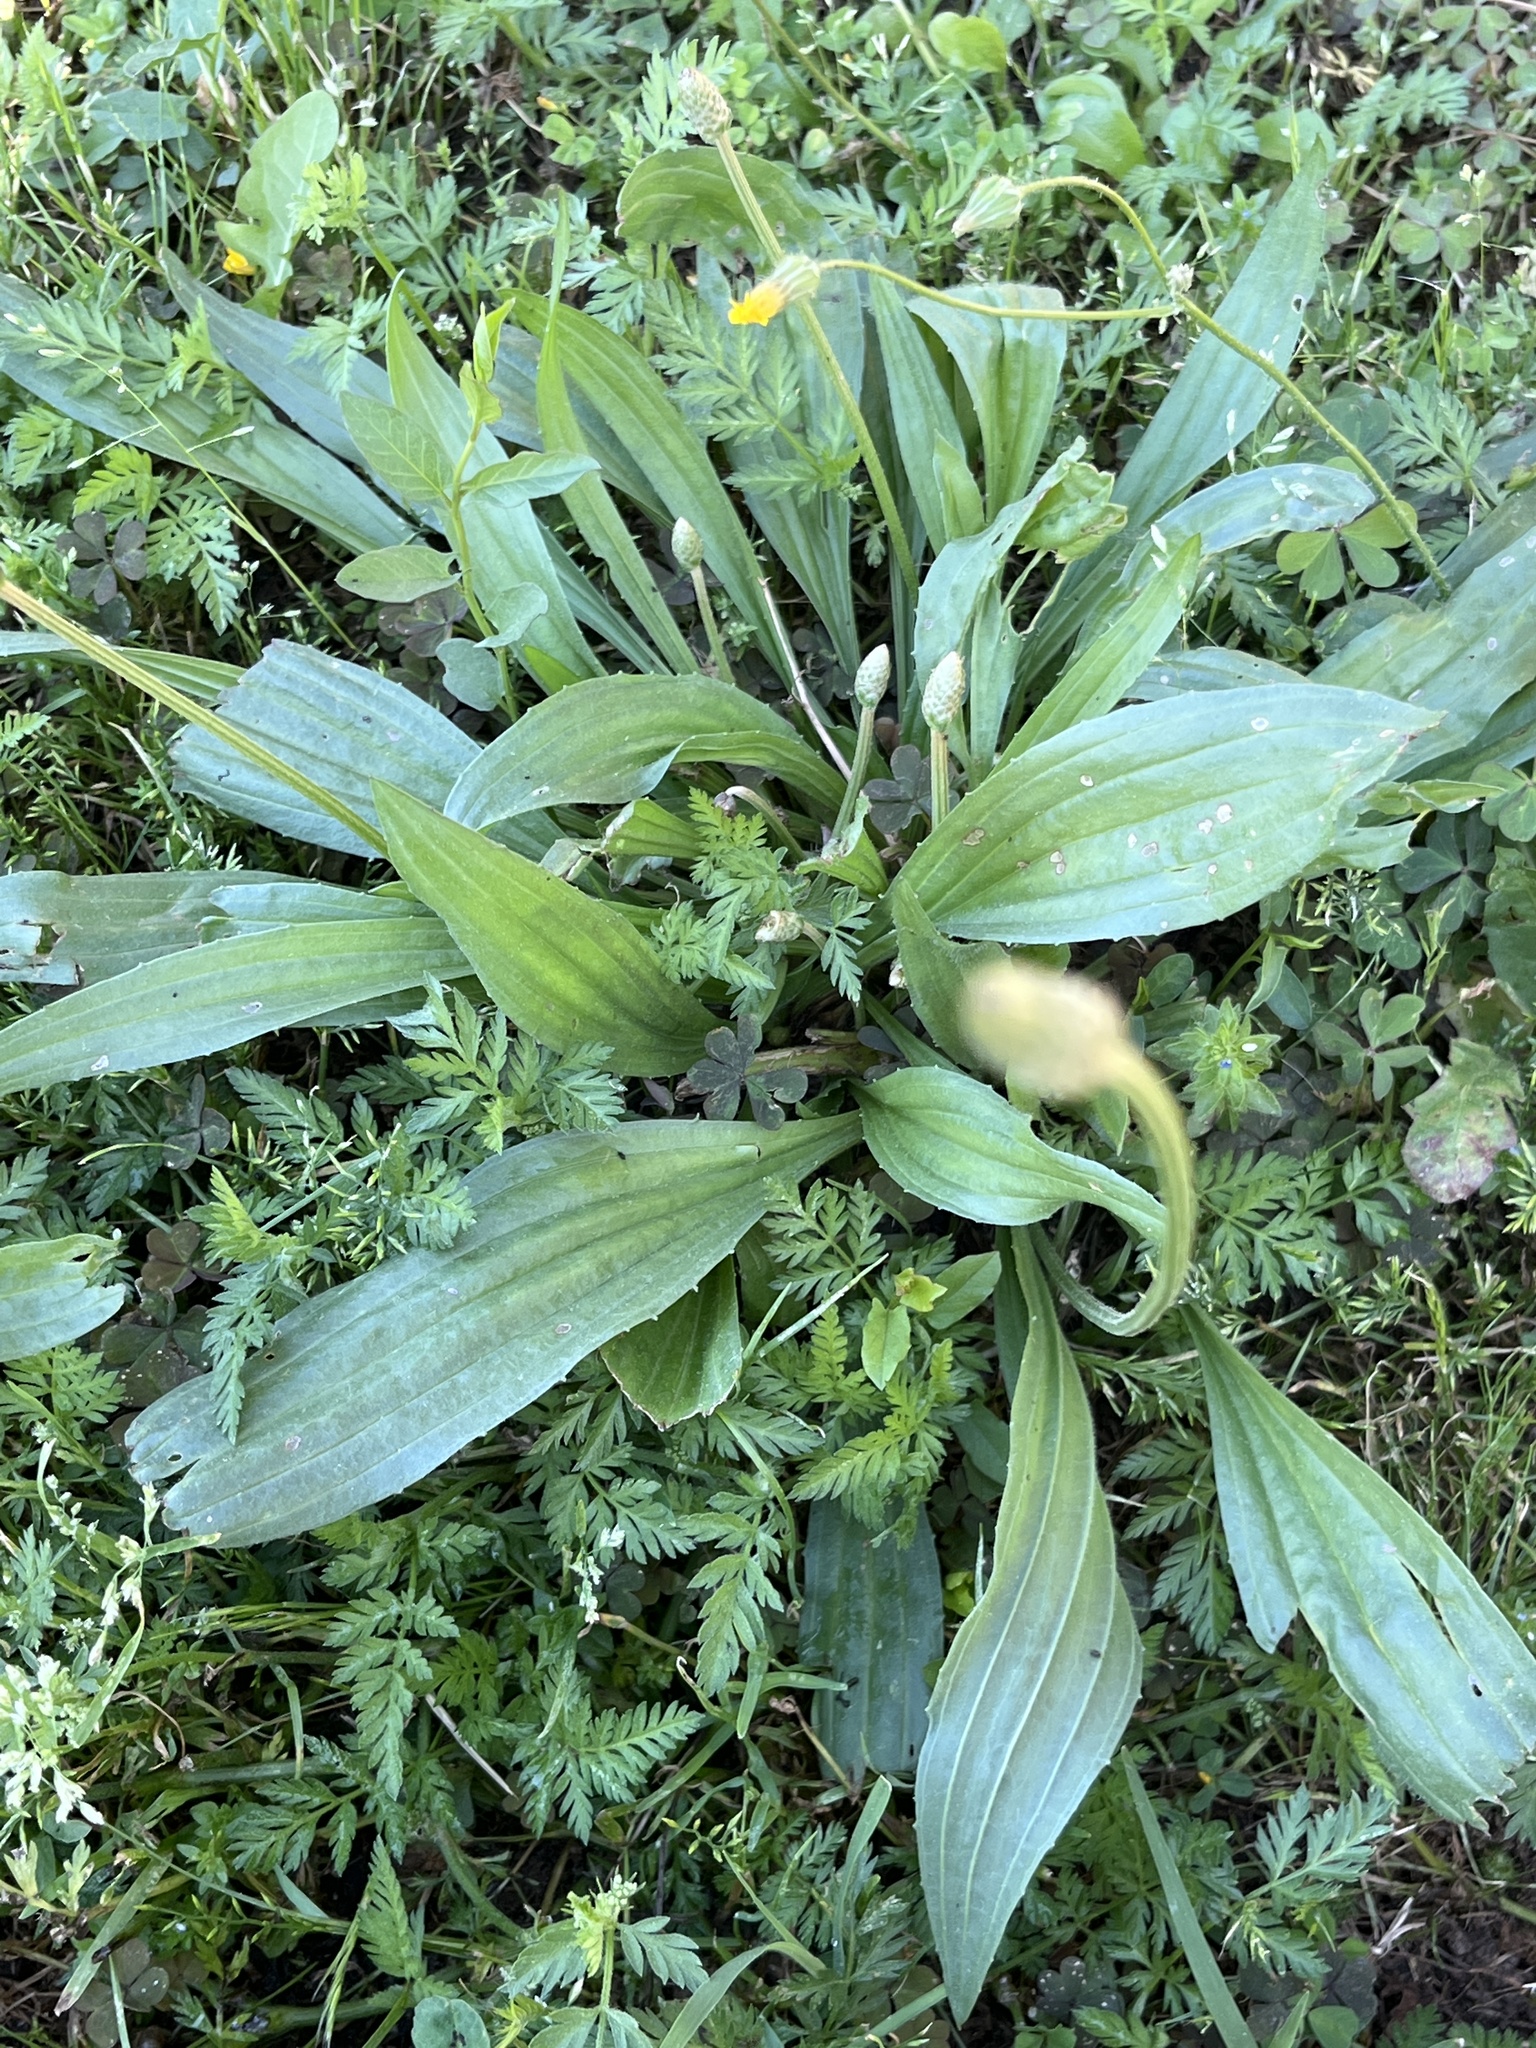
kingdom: Plantae
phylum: Tracheophyta
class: Magnoliopsida
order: Lamiales
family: Plantaginaceae
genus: Plantago
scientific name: Plantago lanceolata
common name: Ribwort plantain
